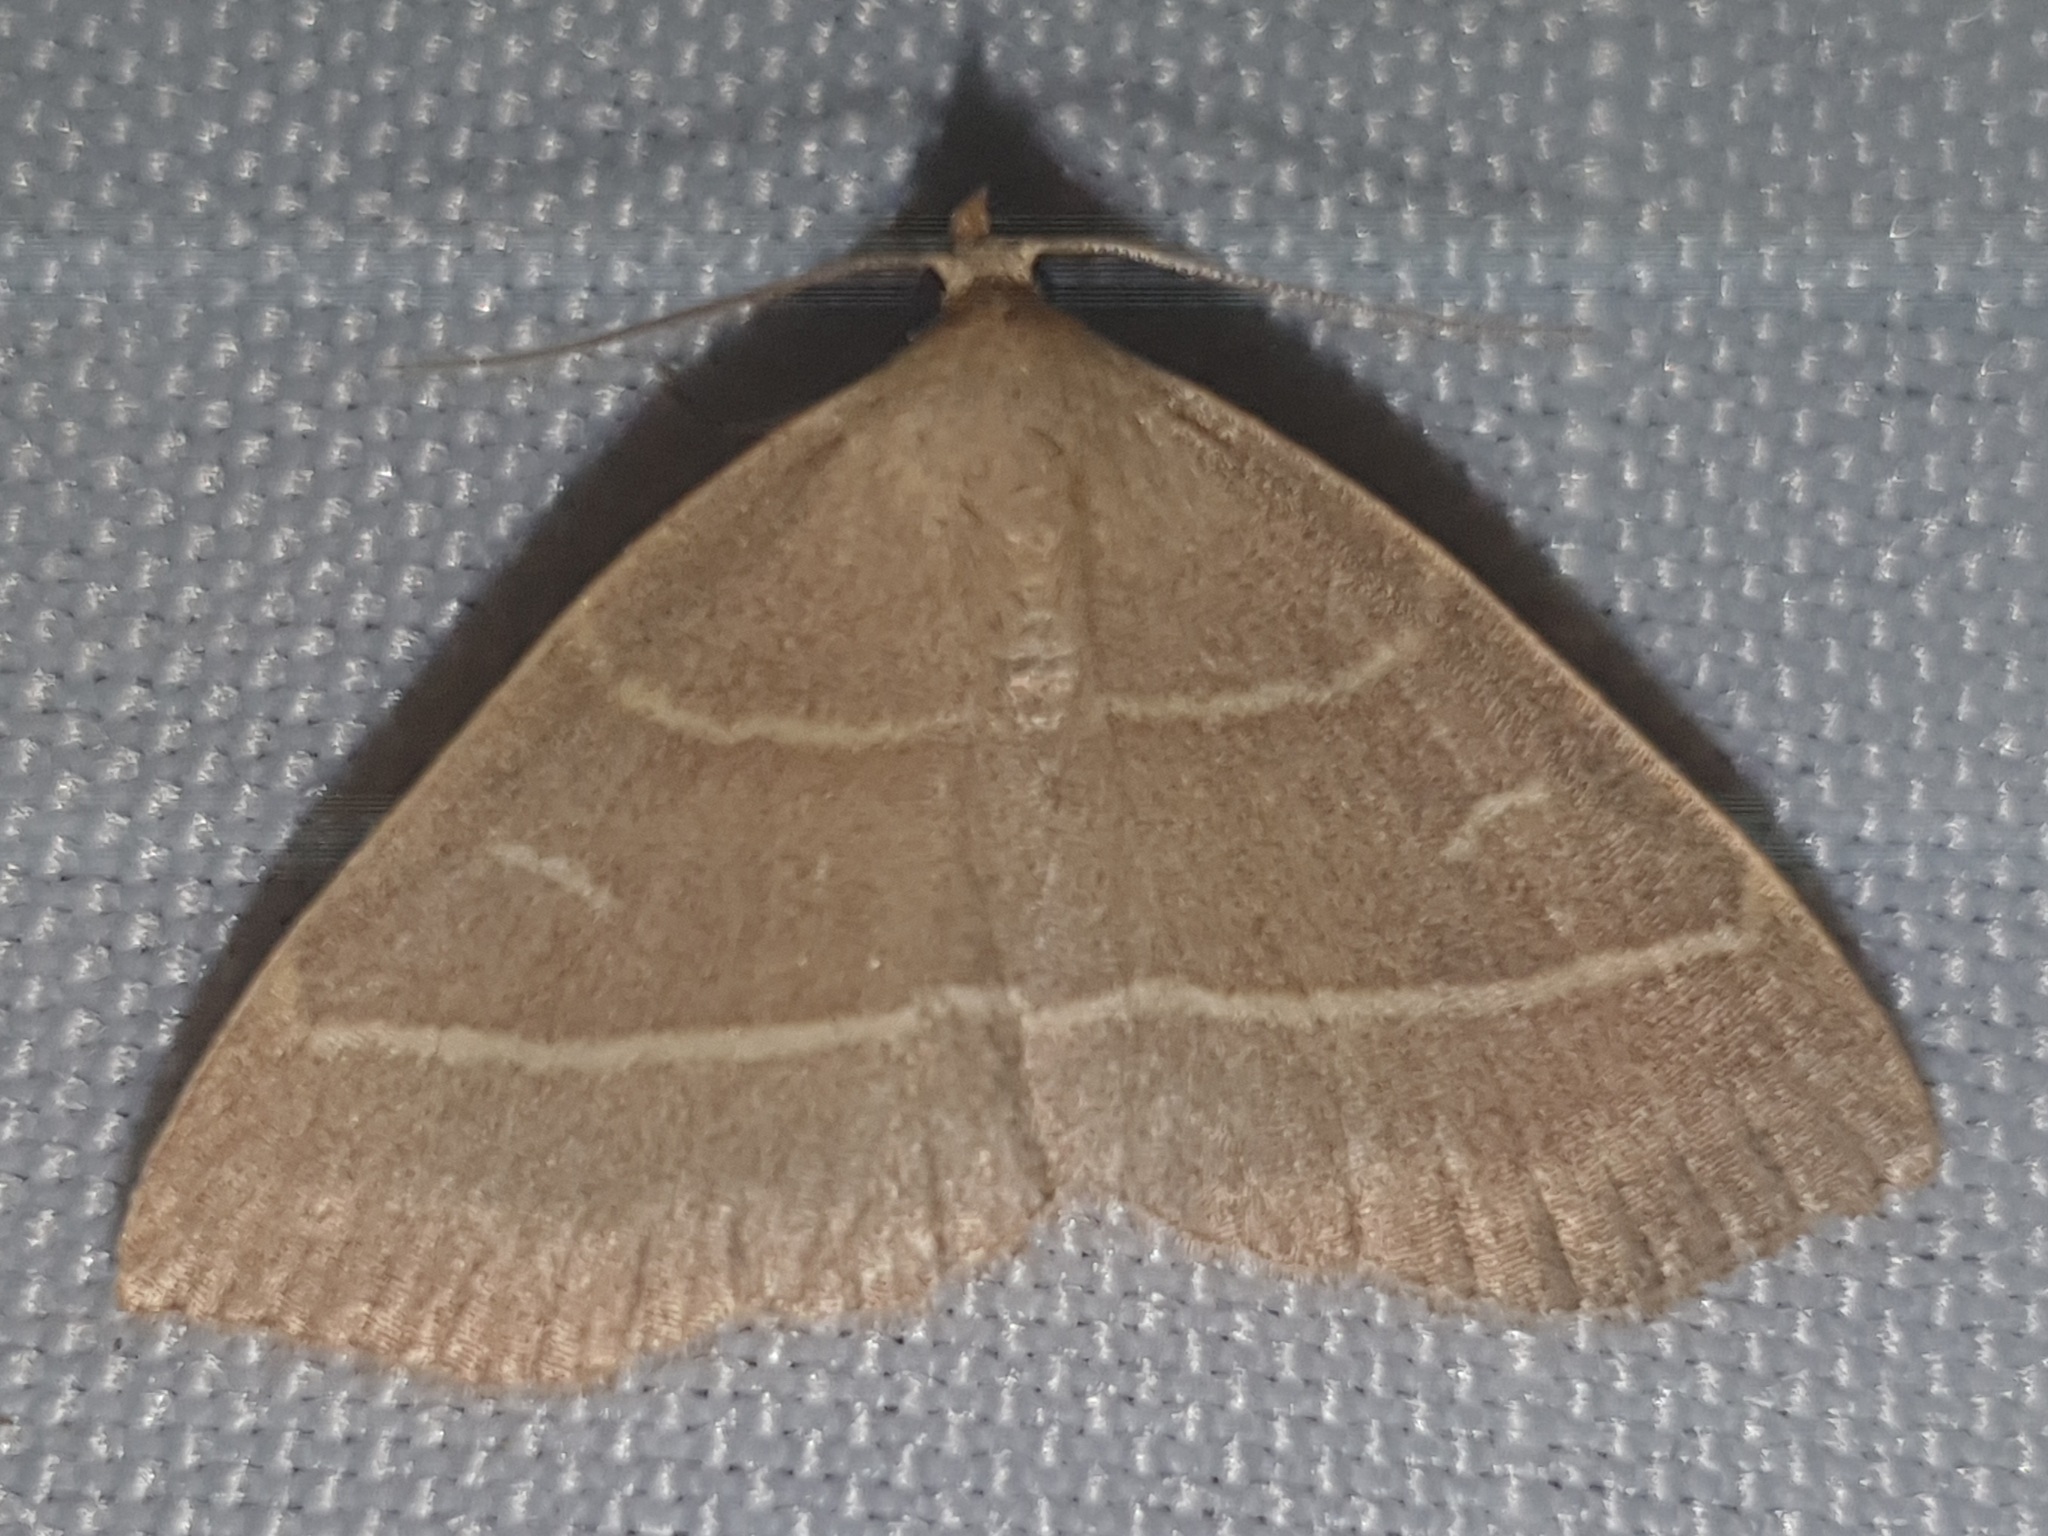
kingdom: Animalia
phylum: Arthropoda
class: Insecta
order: Lepidoptera
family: Erebidae
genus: Trisateles
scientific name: Trisateles emortualis
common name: Olive crescent
